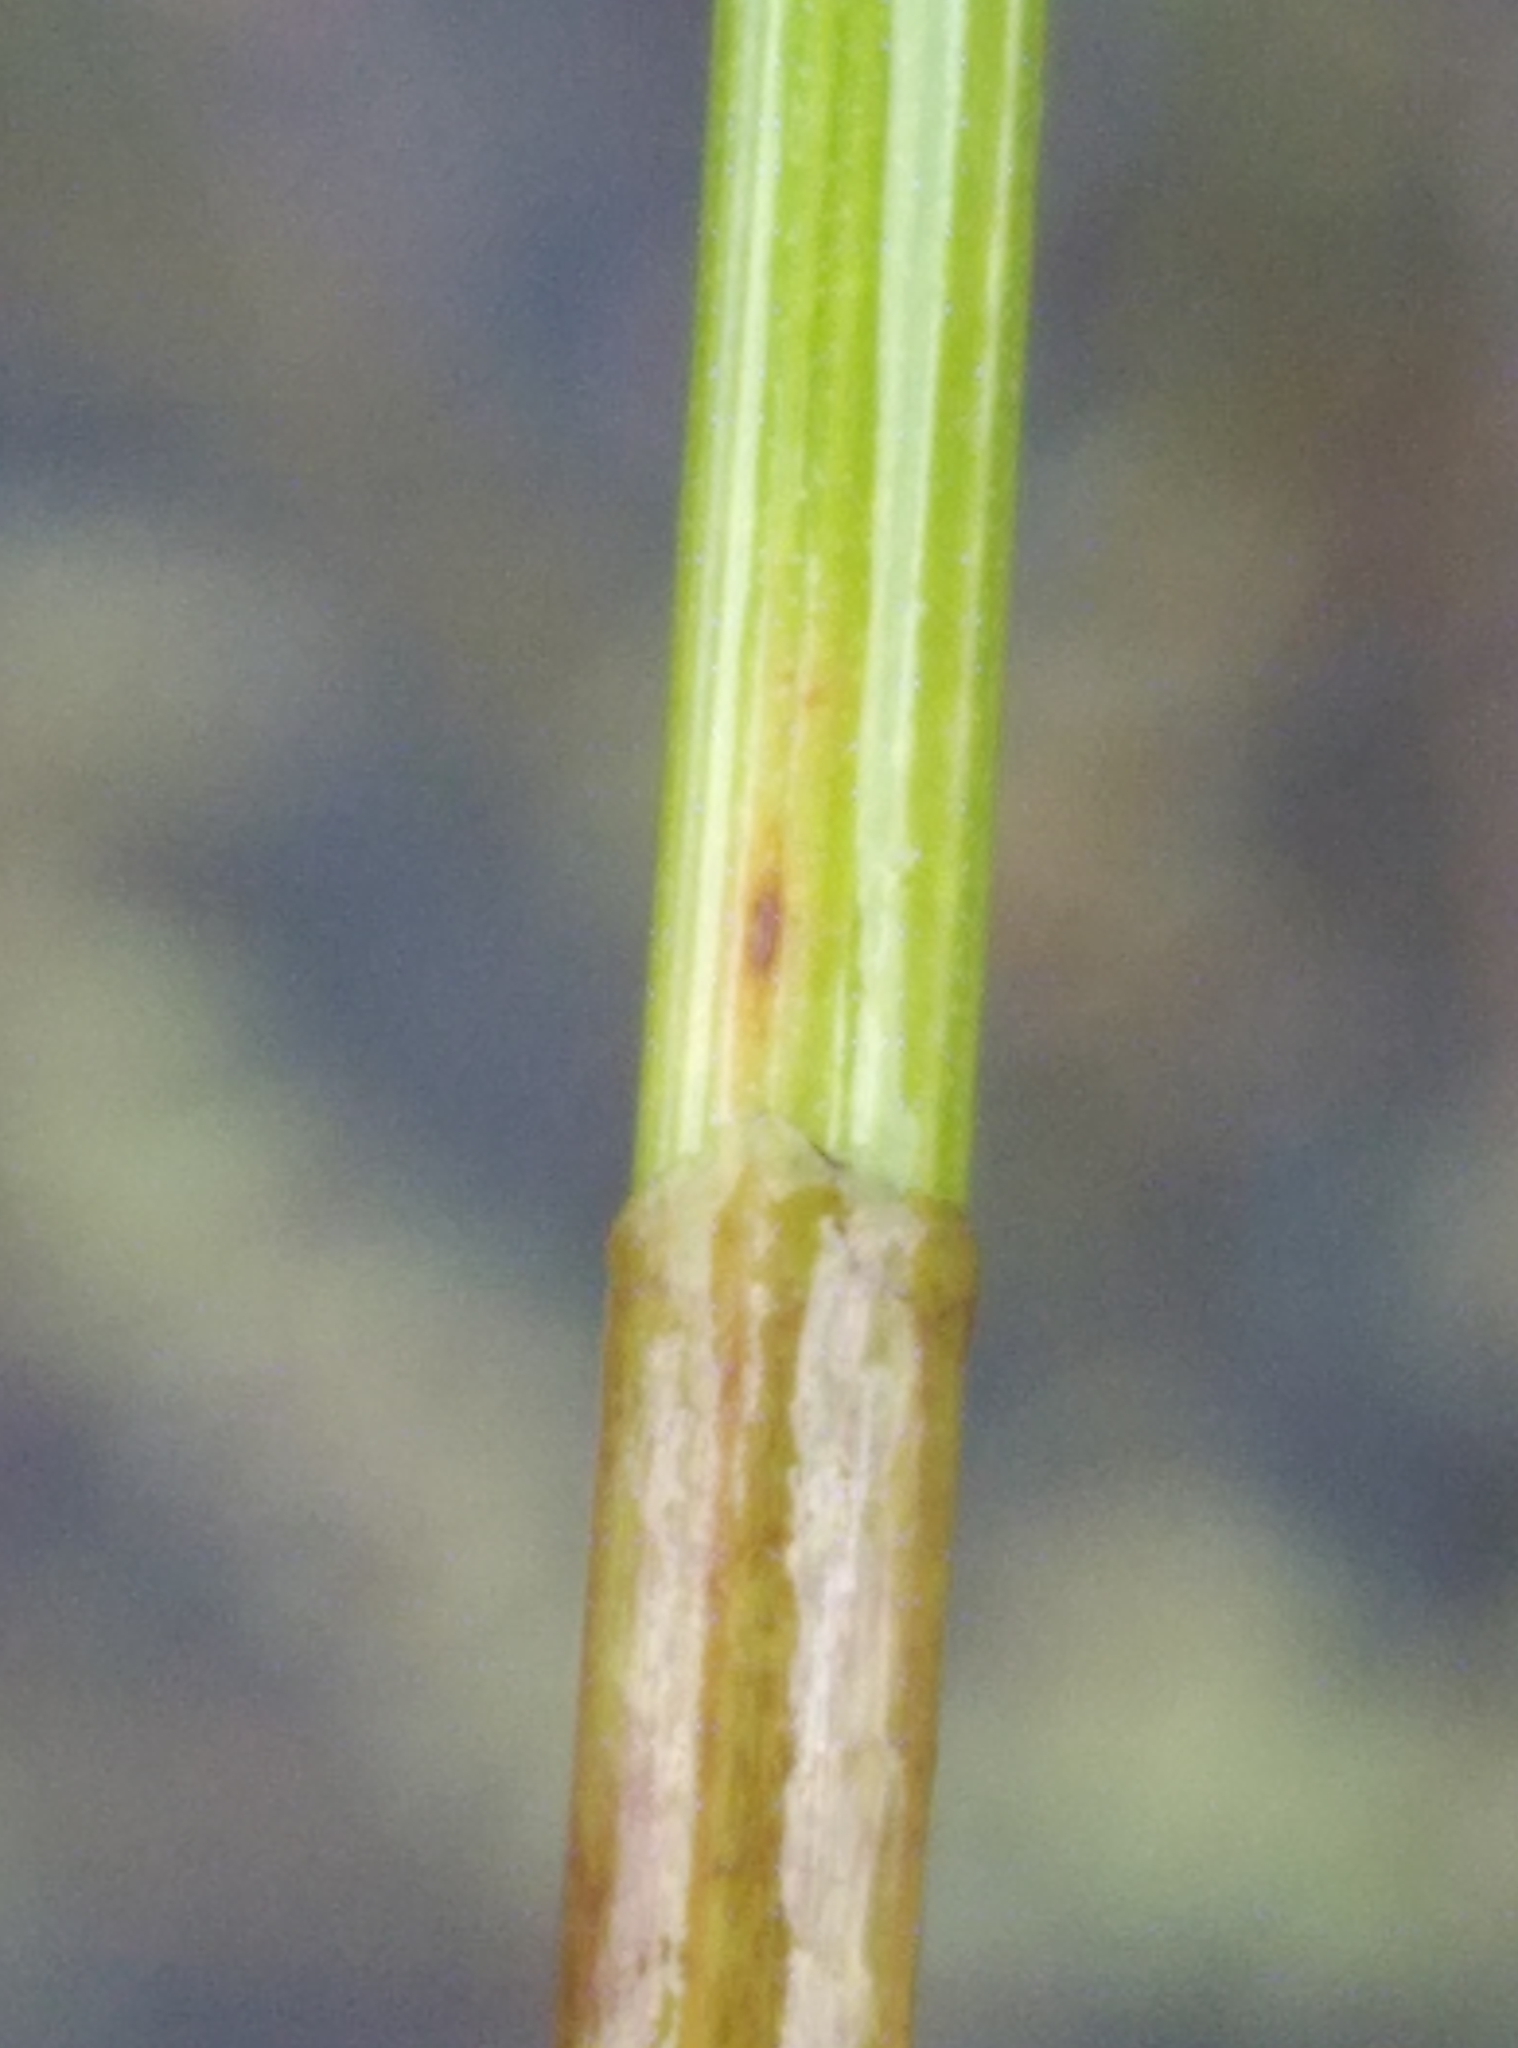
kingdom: Plantae
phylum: Tracheophyta
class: Liliopsida
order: Poales
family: Cyperaceae
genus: Eleocharis
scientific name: Eleocharis acuta
